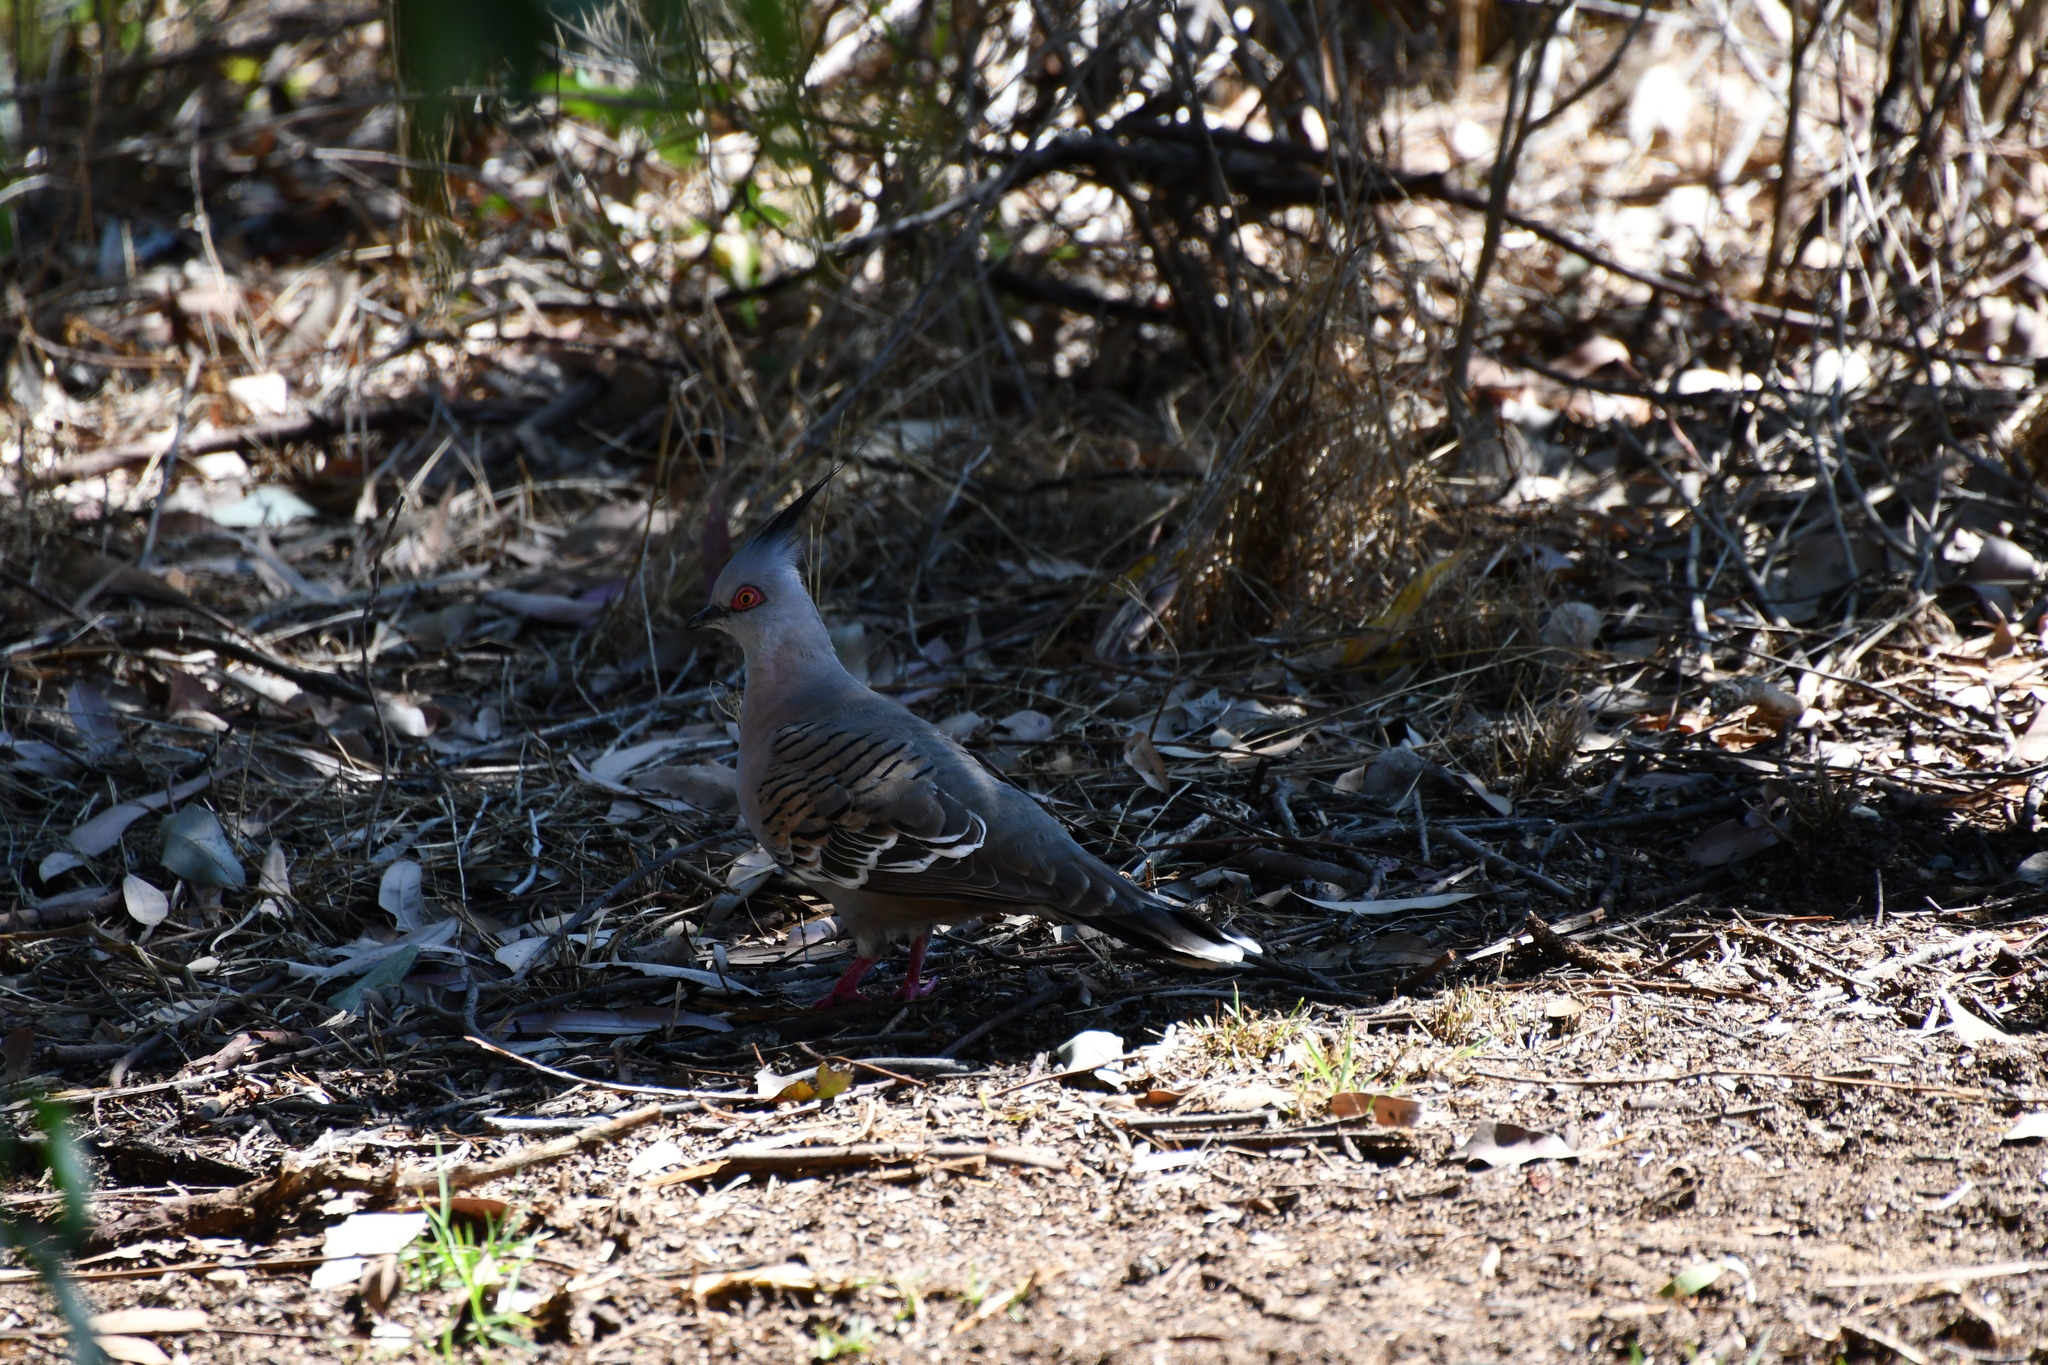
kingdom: Animalia
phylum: Chordata
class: Aves
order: Columbiformes
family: Columbidae
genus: Ocyphaps
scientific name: Ocyphaps lophotes
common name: Crested pigeon
